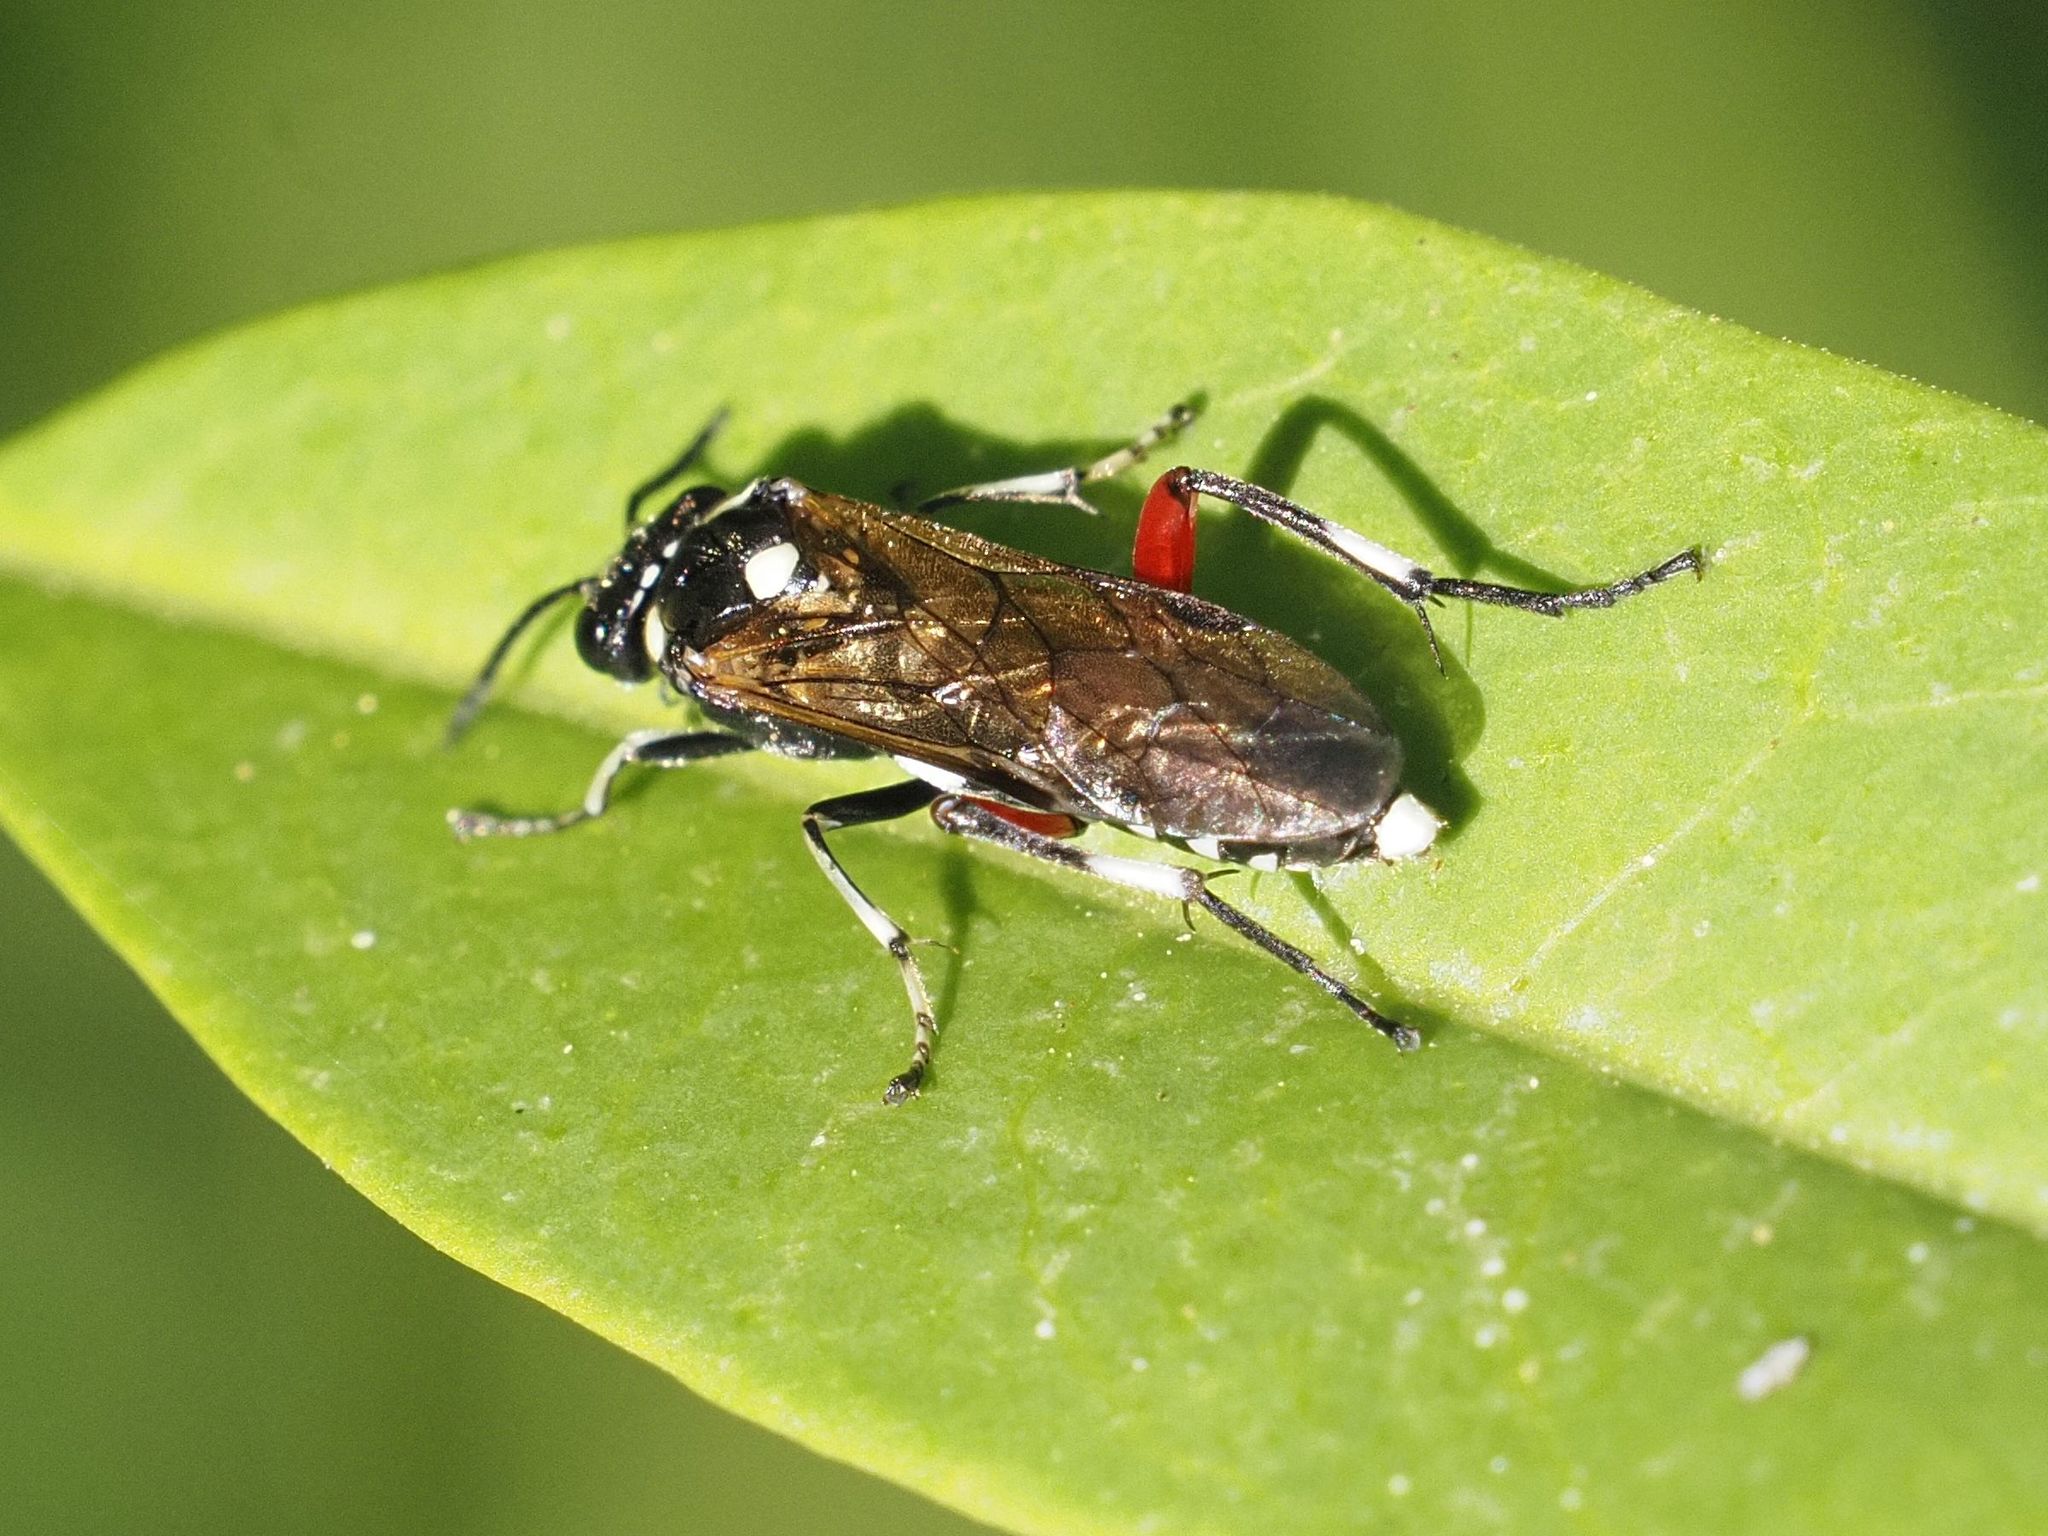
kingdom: Animalia
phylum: Arthropoda
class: Insecta
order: Hymenoptera
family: Tenthredinidae
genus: Macrophya
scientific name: Macrophya punctumalbum
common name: Sawfly
